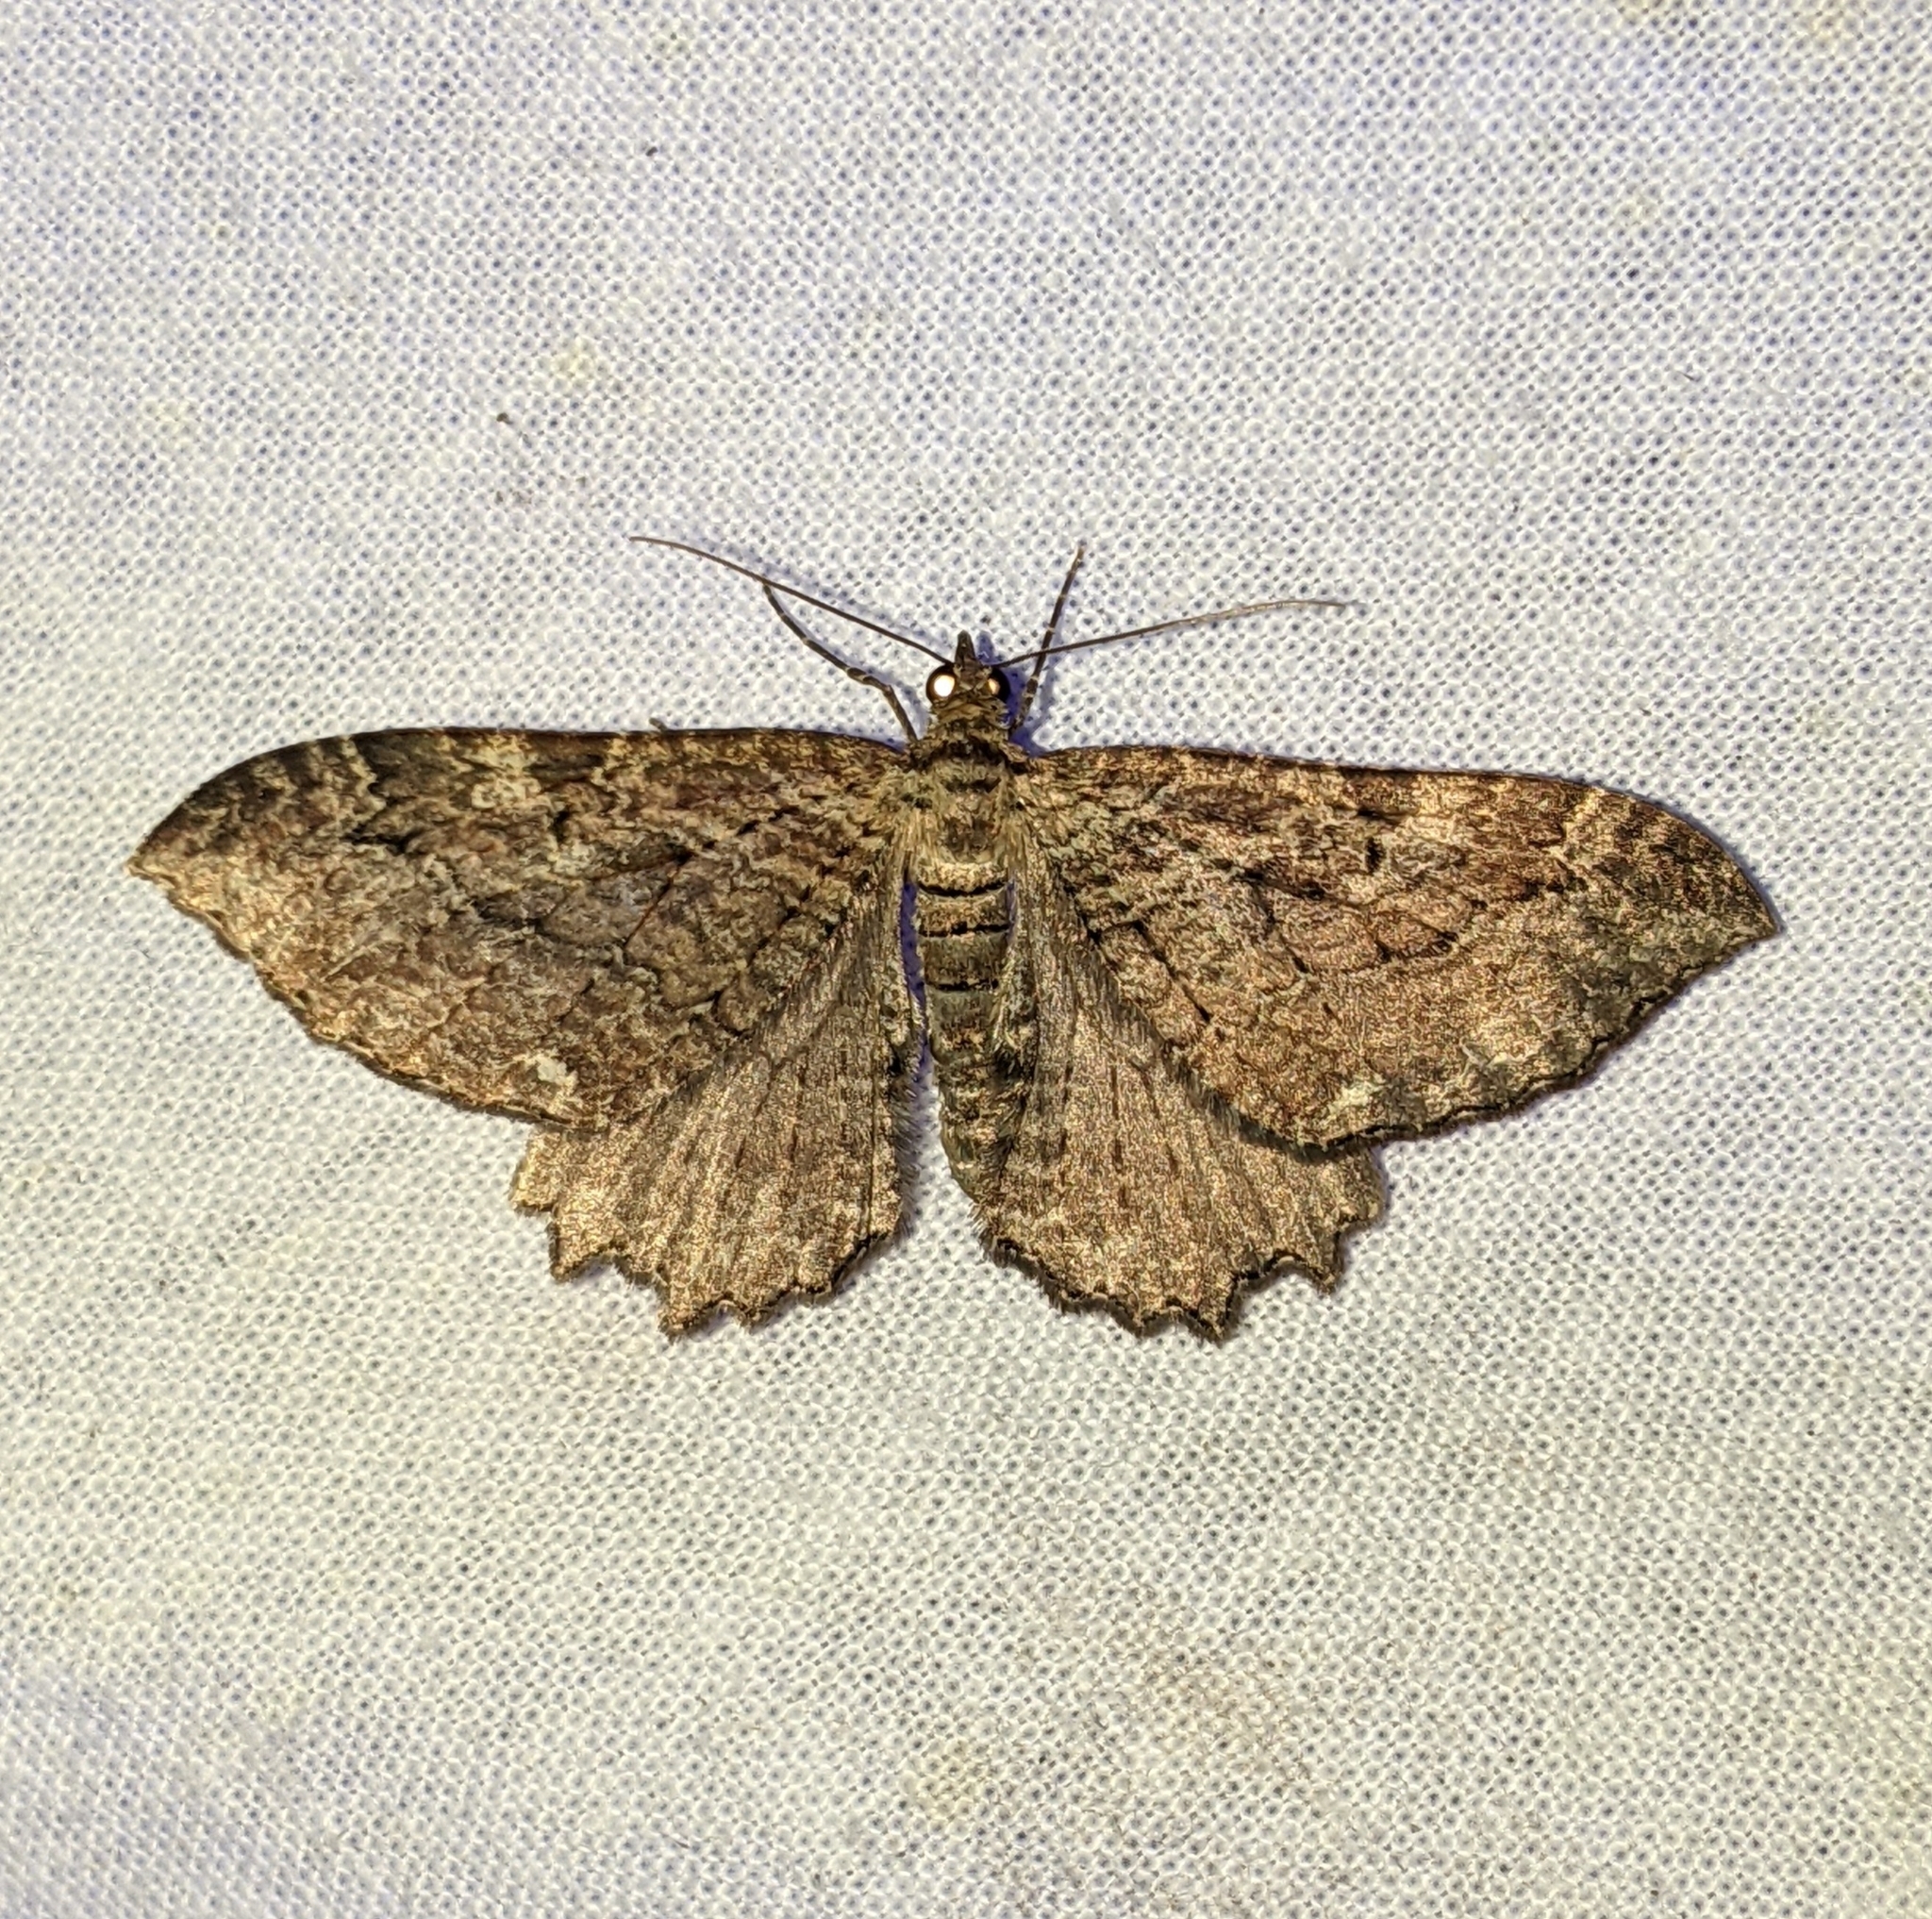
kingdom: Animalia
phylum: Arthropoda
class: Insecta
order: Lepidoptera
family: Geometridae
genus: Rheumaptera
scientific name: Rheumaptera
